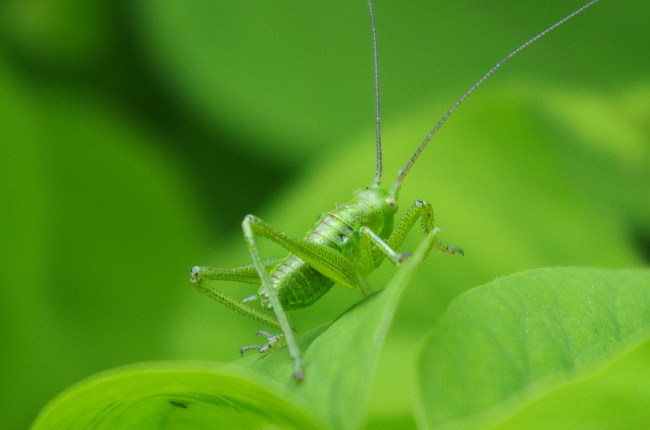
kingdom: Animalia
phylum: Arthropoda
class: Insecta
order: Orthoptera
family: Tettigoniidae
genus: Tettigonia
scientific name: Tettigonia cantans
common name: Upland green bush-cricket
